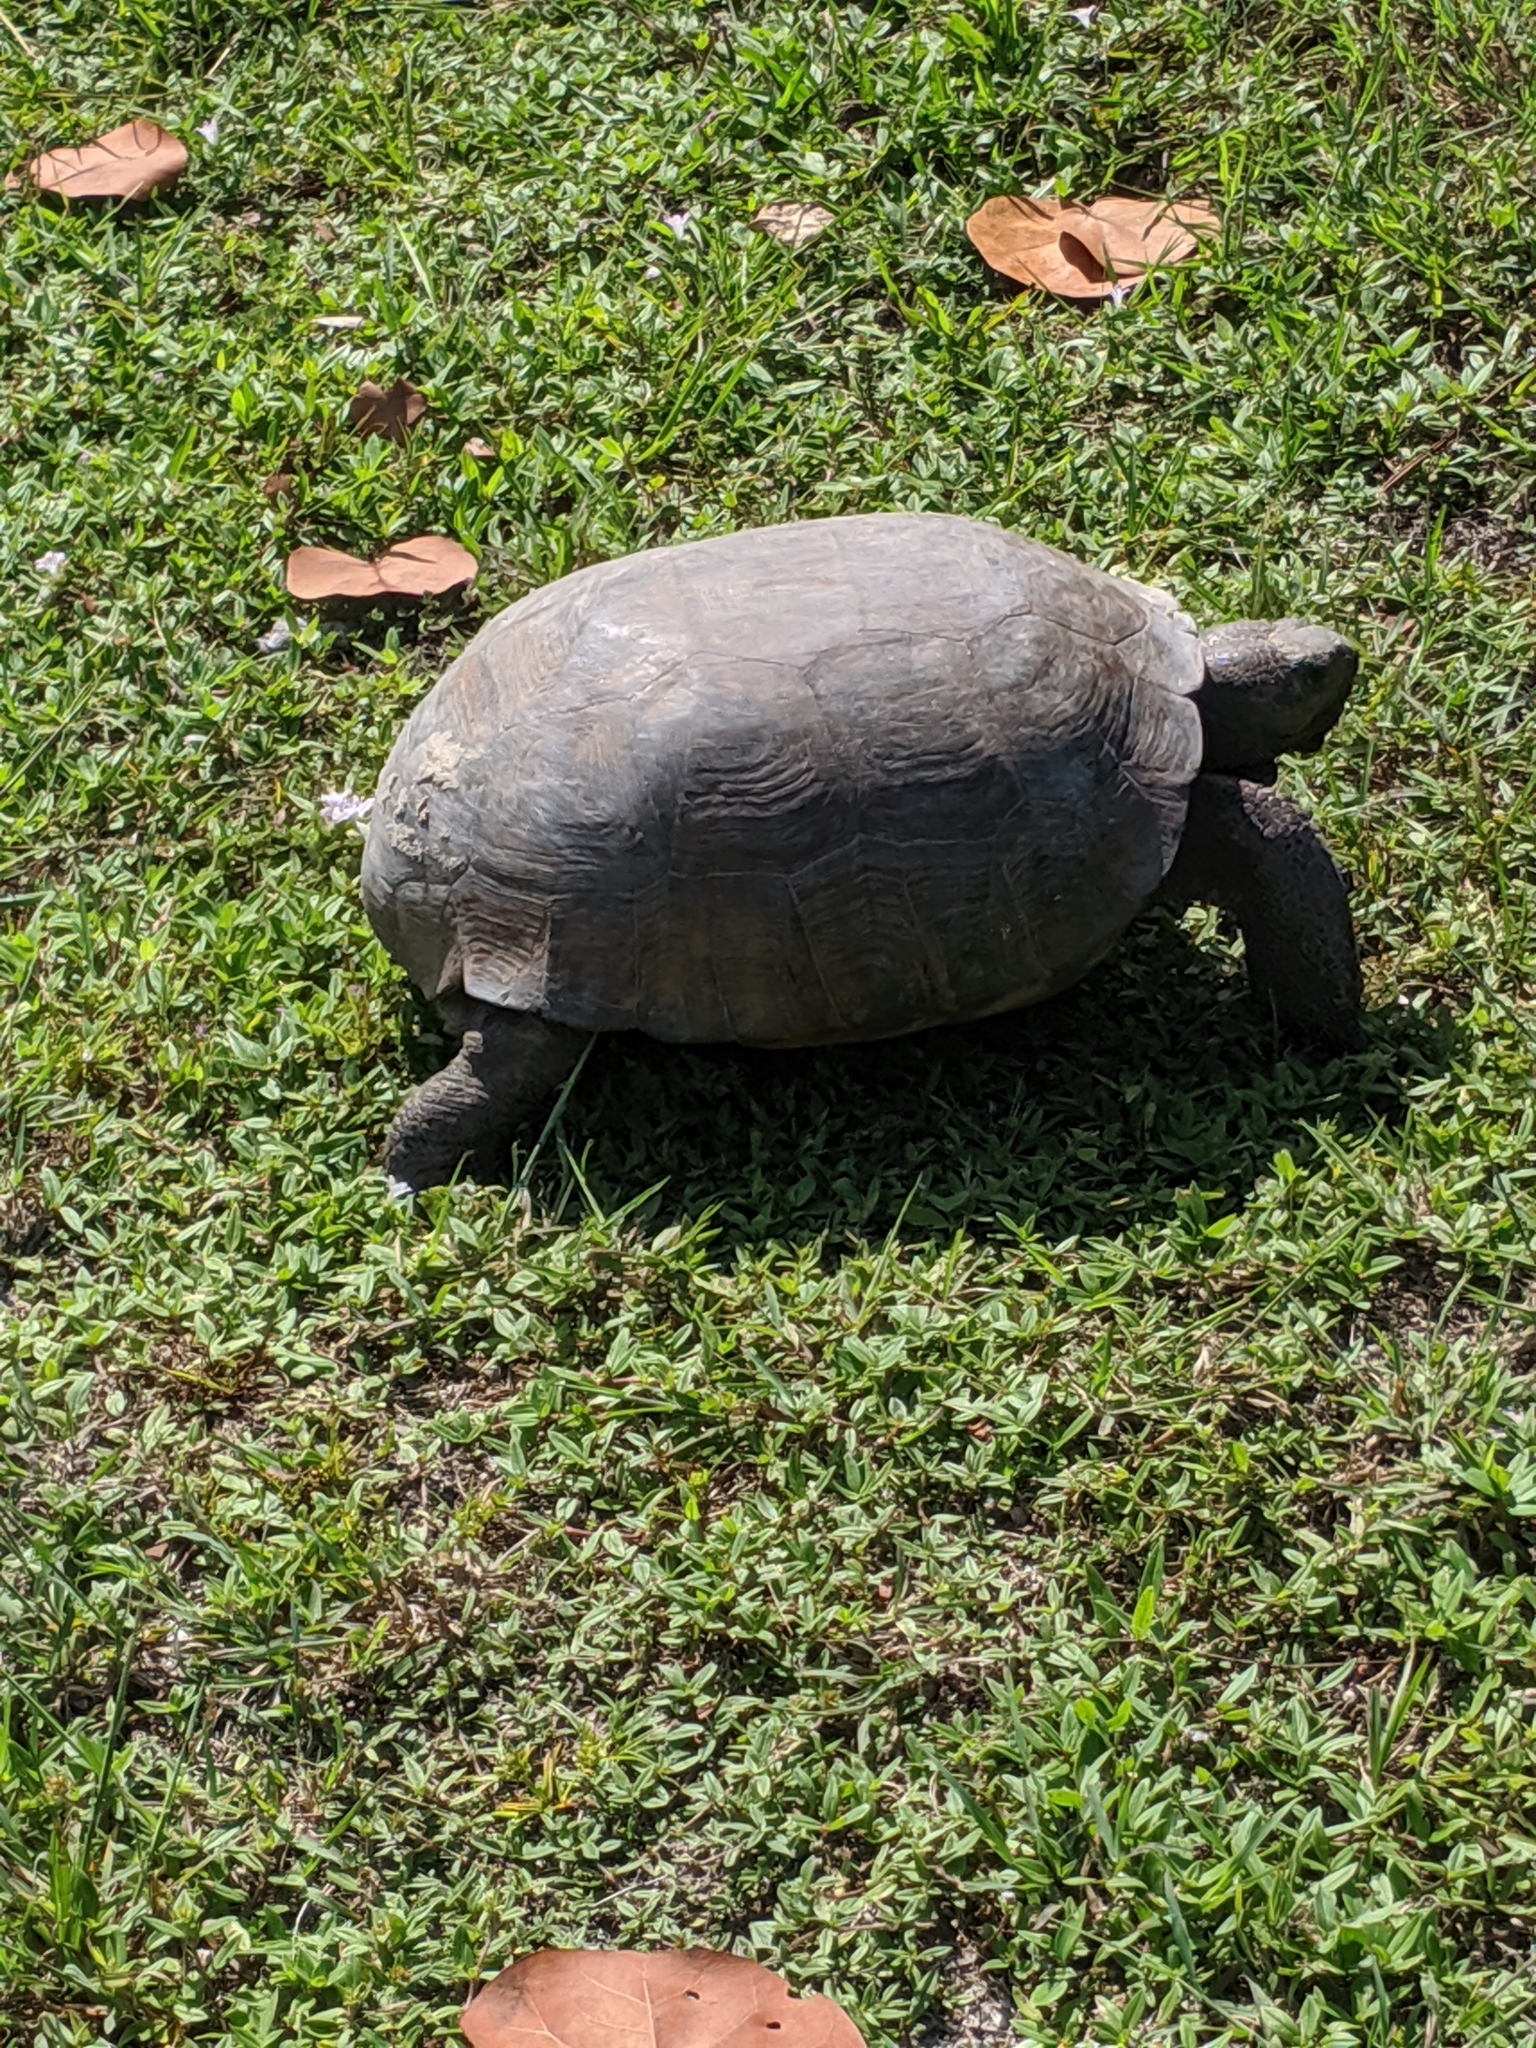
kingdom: Animalia
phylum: Chordata
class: Testudines
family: Testudinidae
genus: Gopherus
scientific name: Gopherus polyphemus
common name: Florida gopher tortoise
